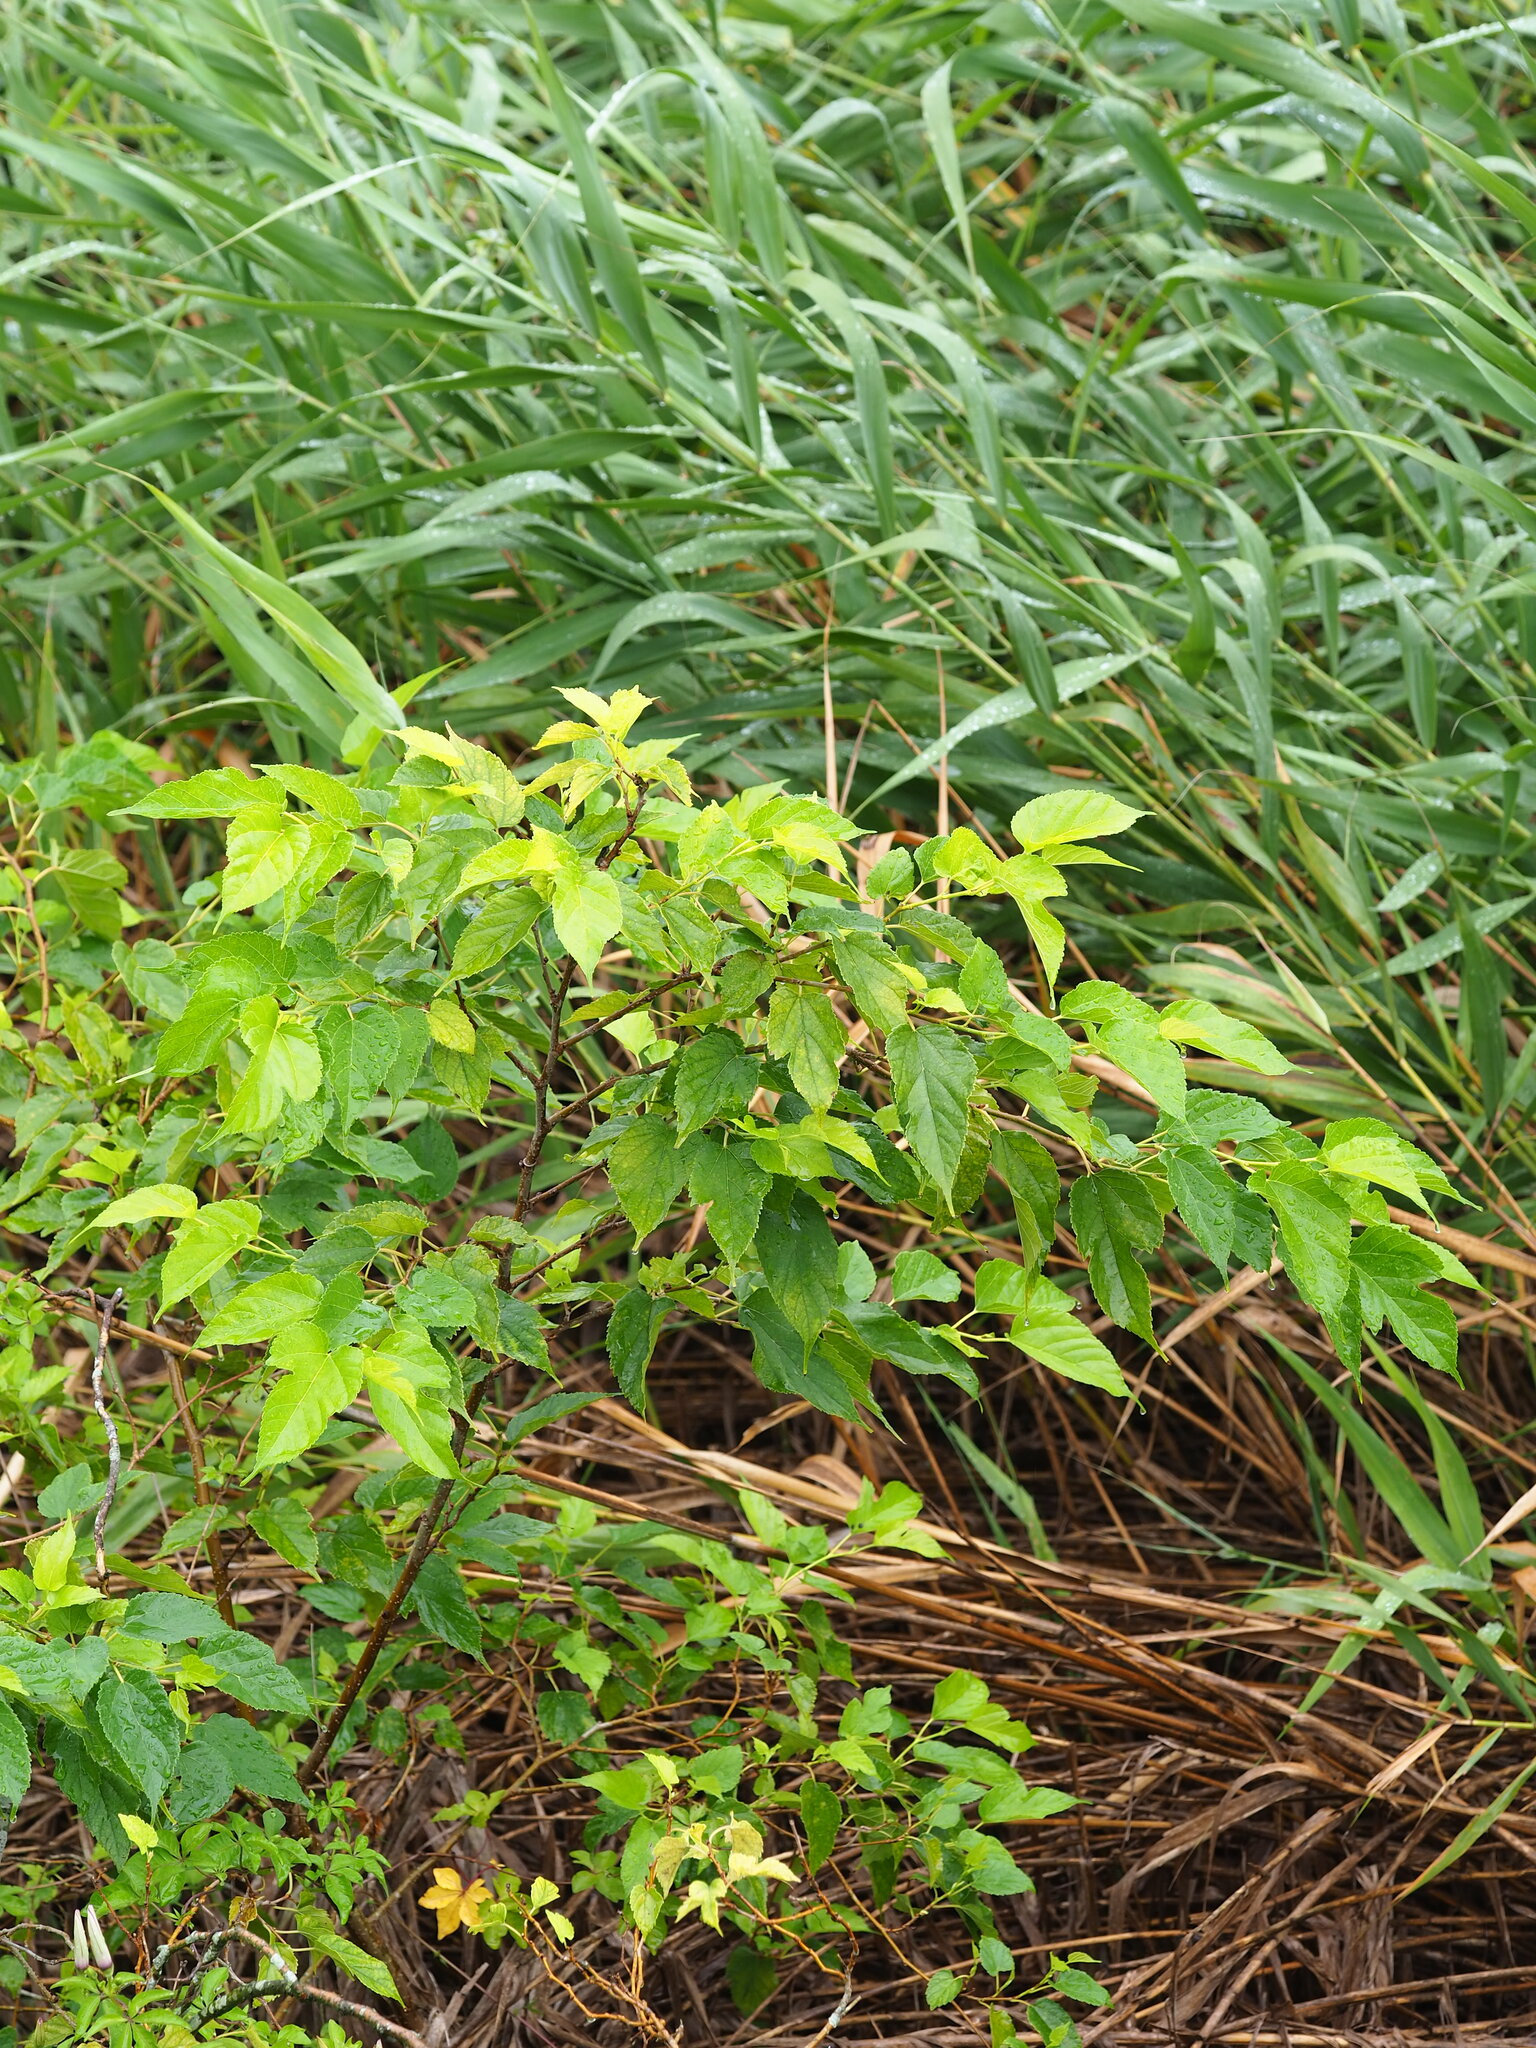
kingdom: Plantae
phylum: Tracheophyta
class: Magnoliopsida
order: Rosales
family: Moraceae
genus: Morus
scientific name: Morus indica
